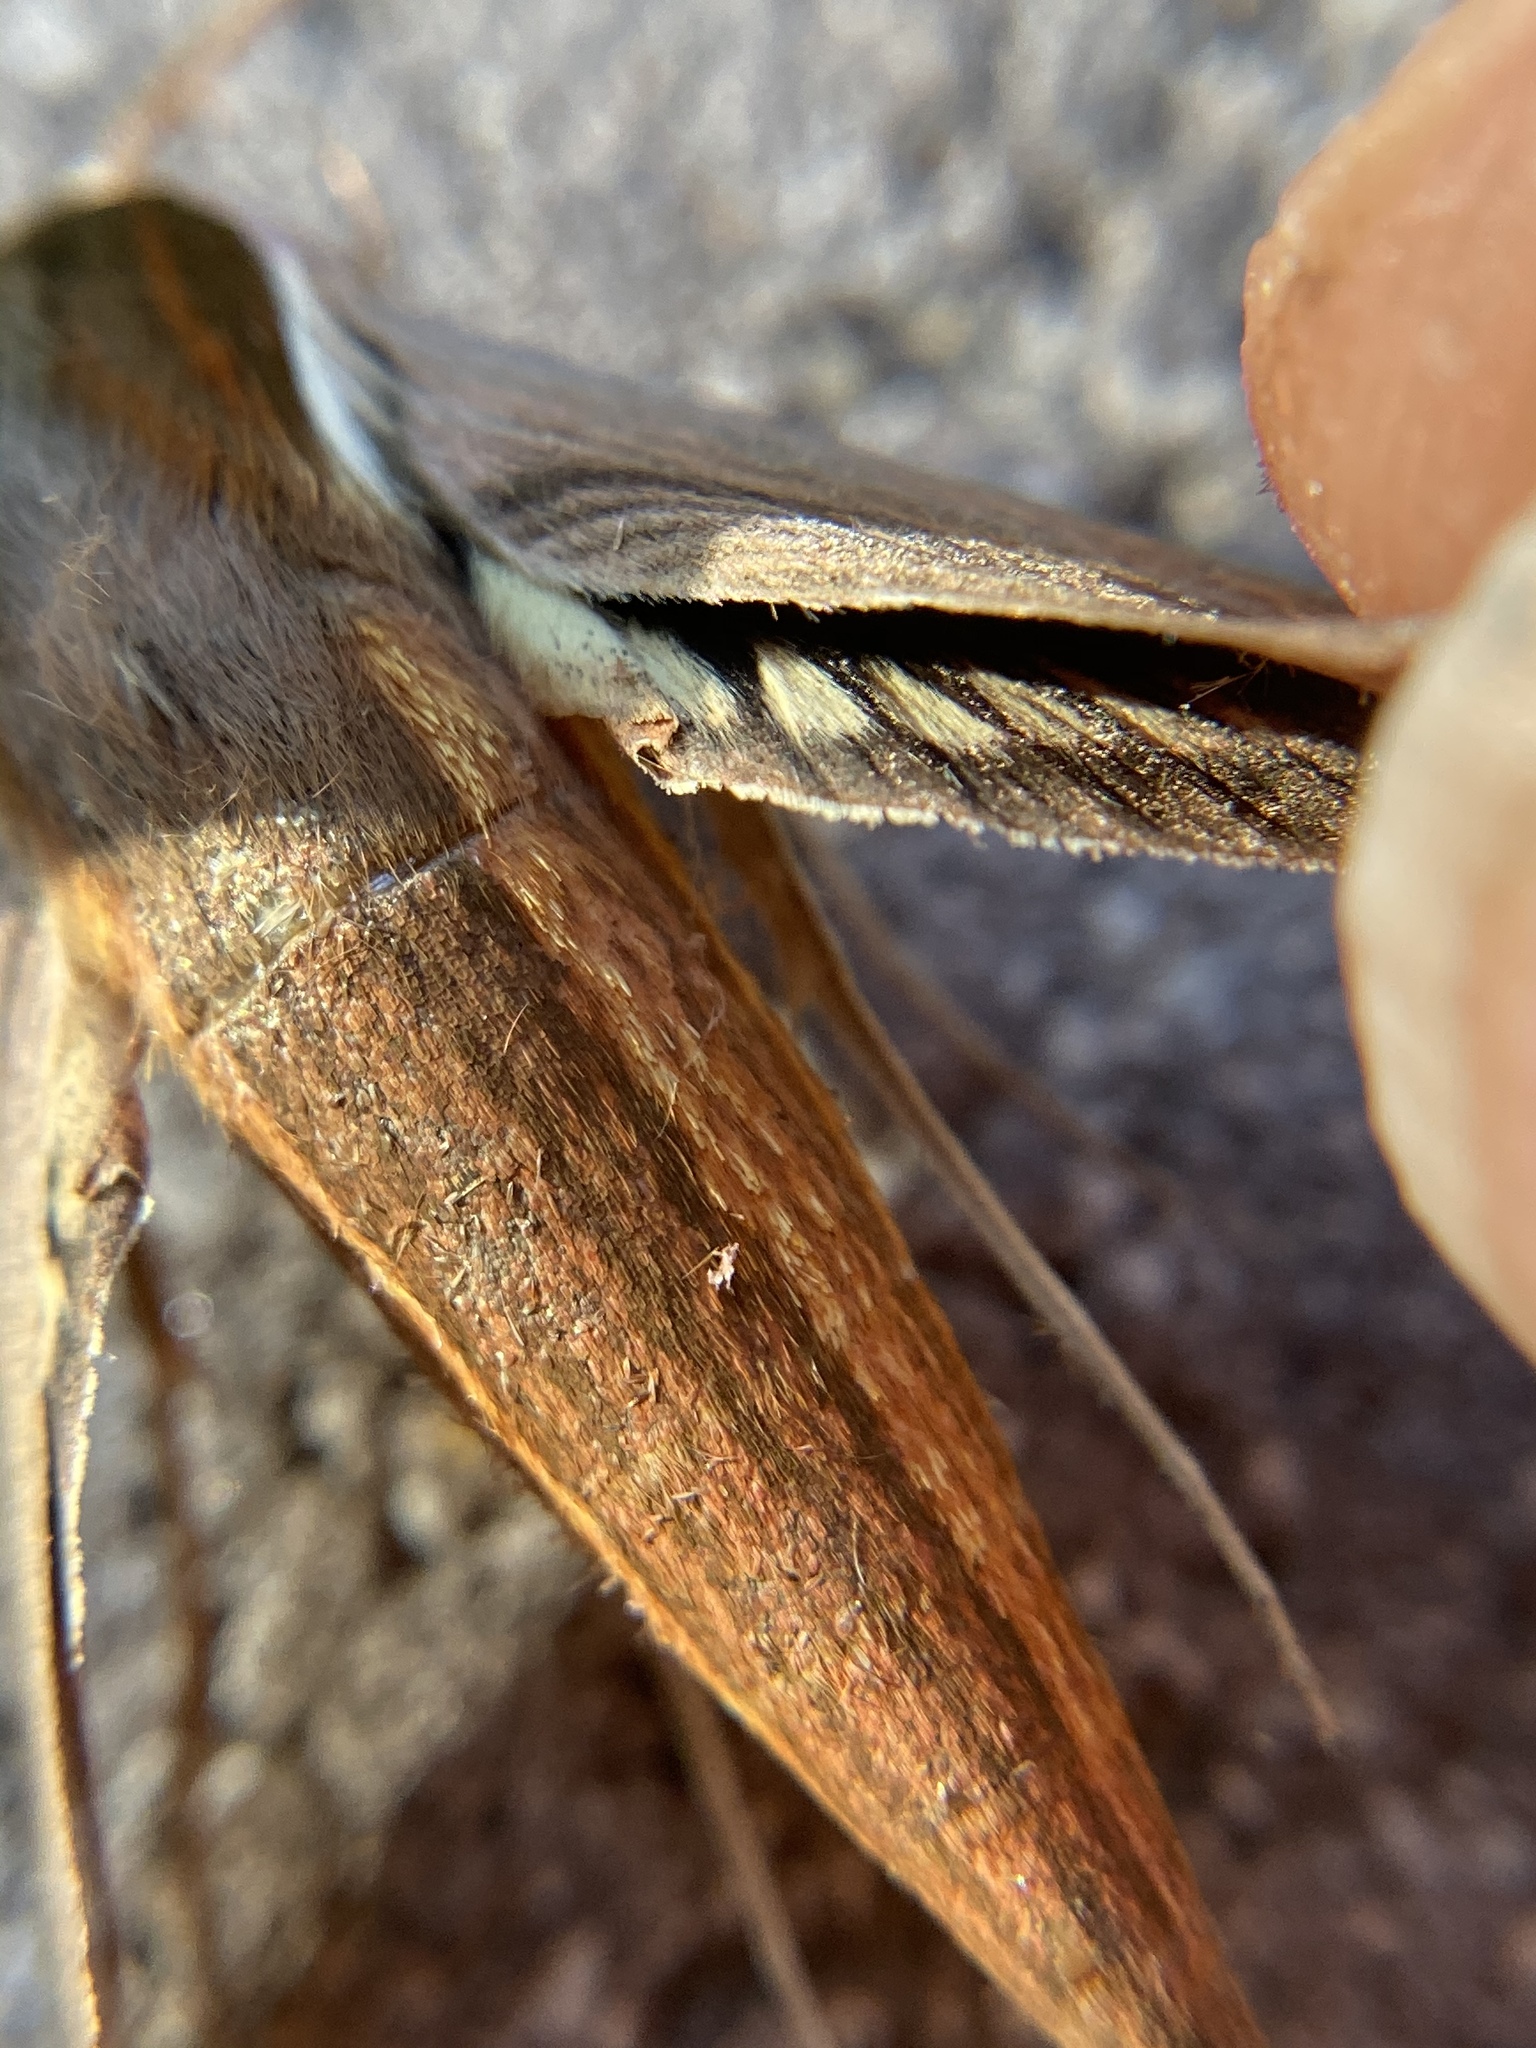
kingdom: Animalia
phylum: Arthropoda
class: Insecta
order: Lepidoptera
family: Sphingidae
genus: Xylophanes
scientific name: Xylophanes tersa
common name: Tersa sphinx
